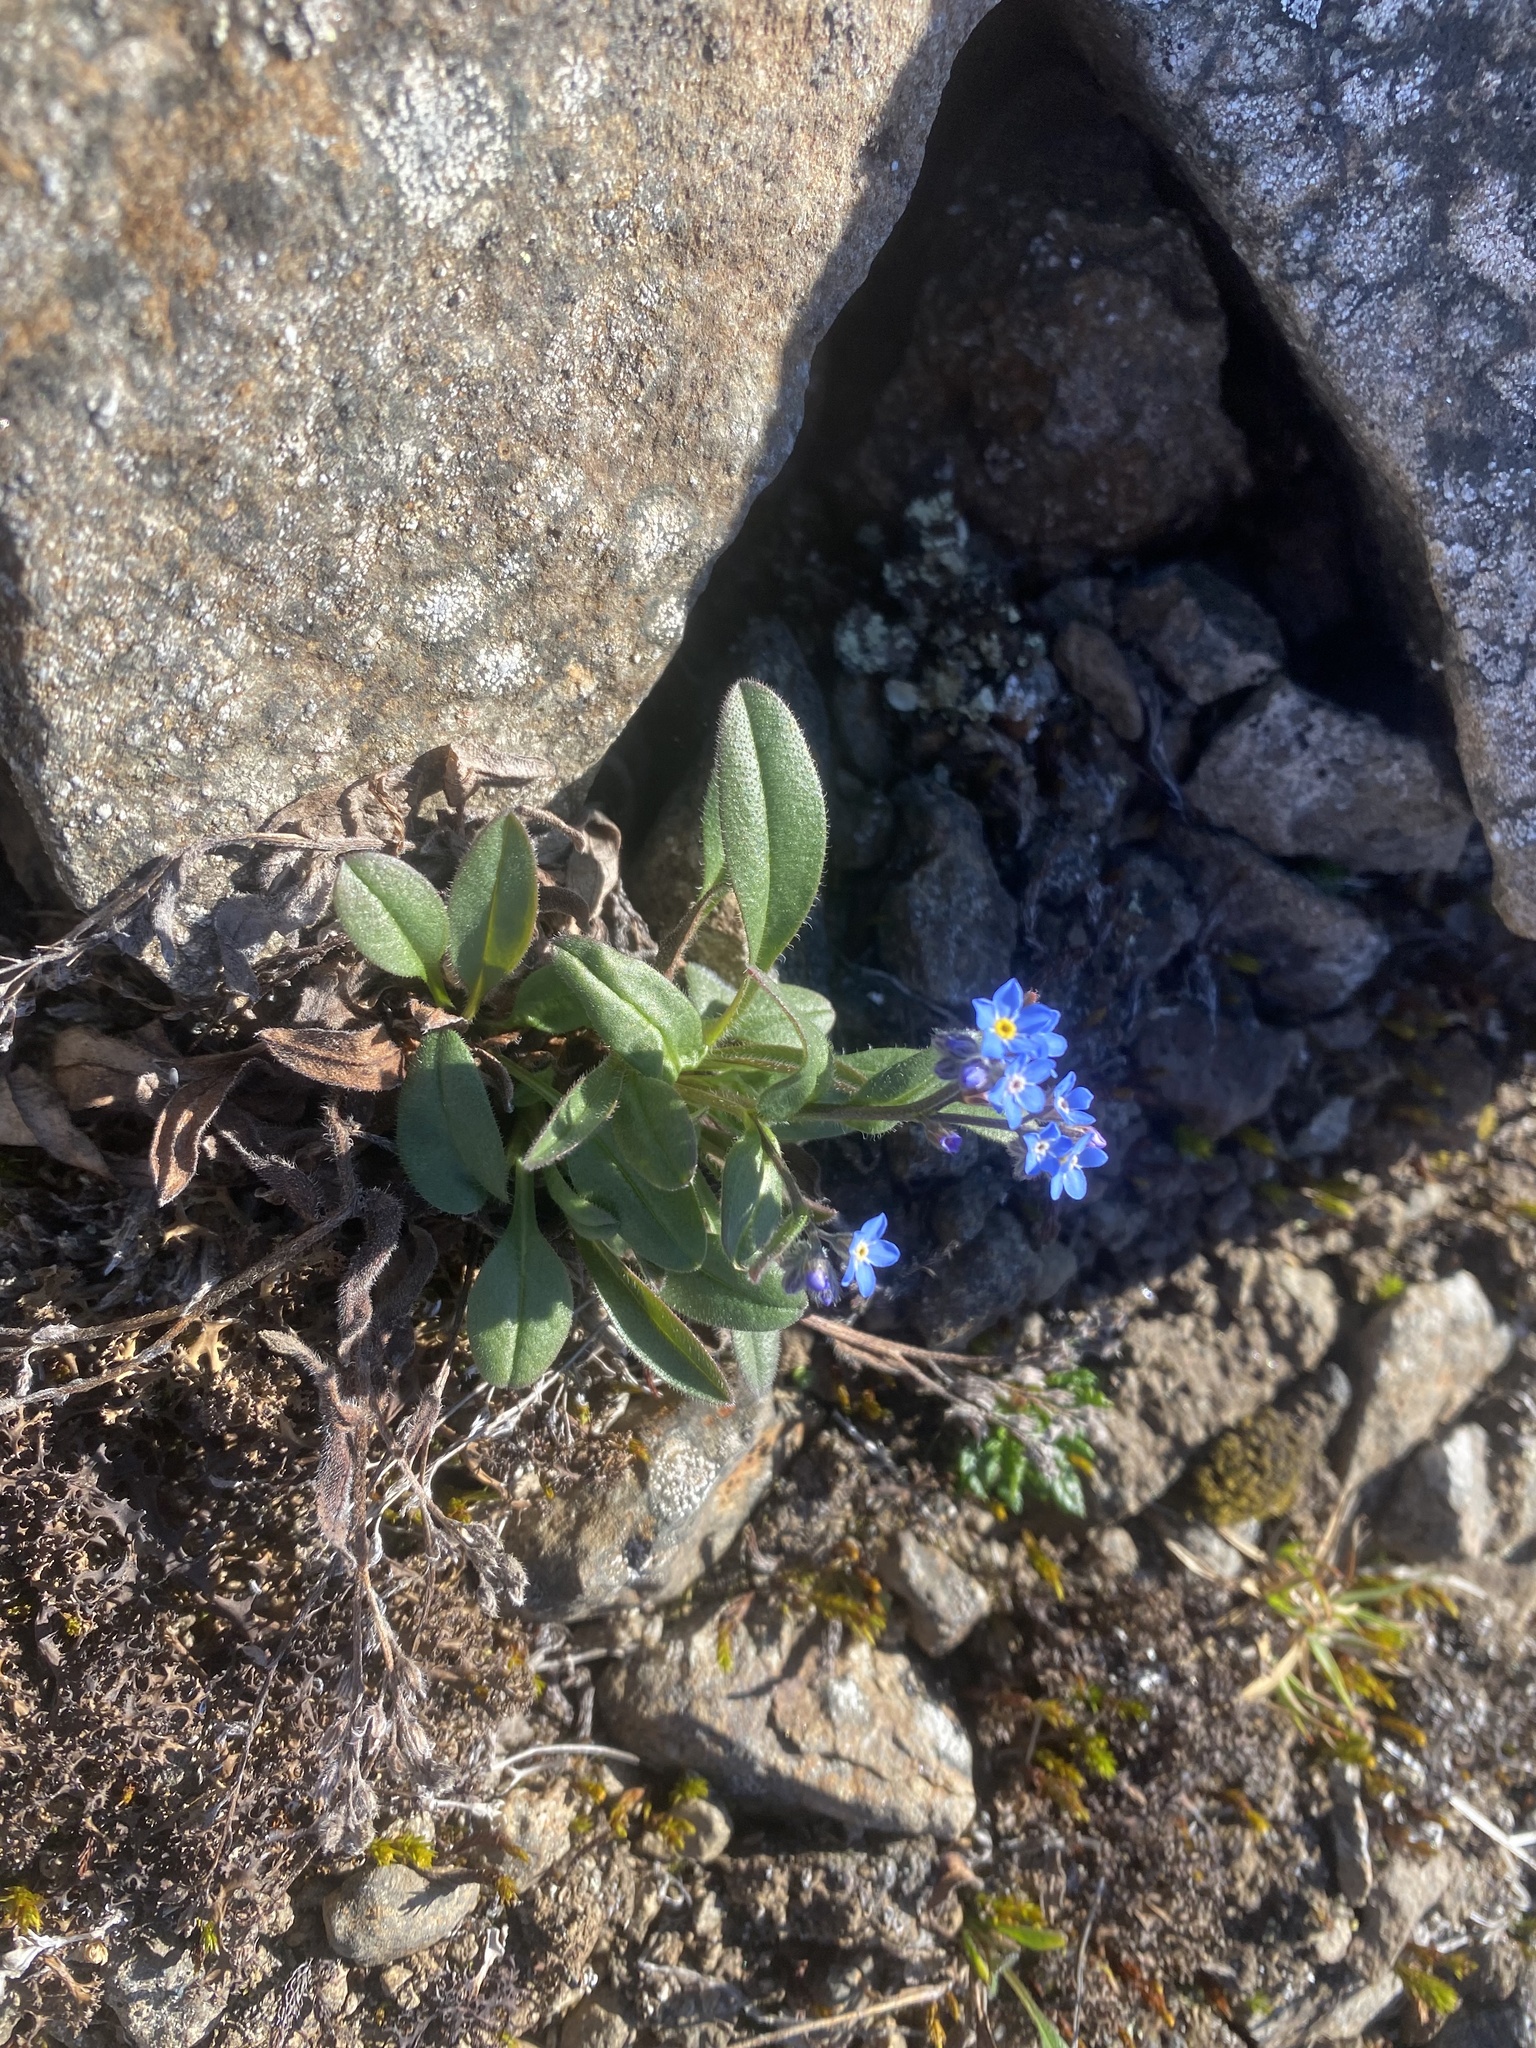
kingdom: Plantae
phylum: Tracheophyta
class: Magnoliopsida
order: Boraginales
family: Boraginaceae
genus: Myosotis
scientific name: Myosotis asiatica
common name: Asian forget-me-not
